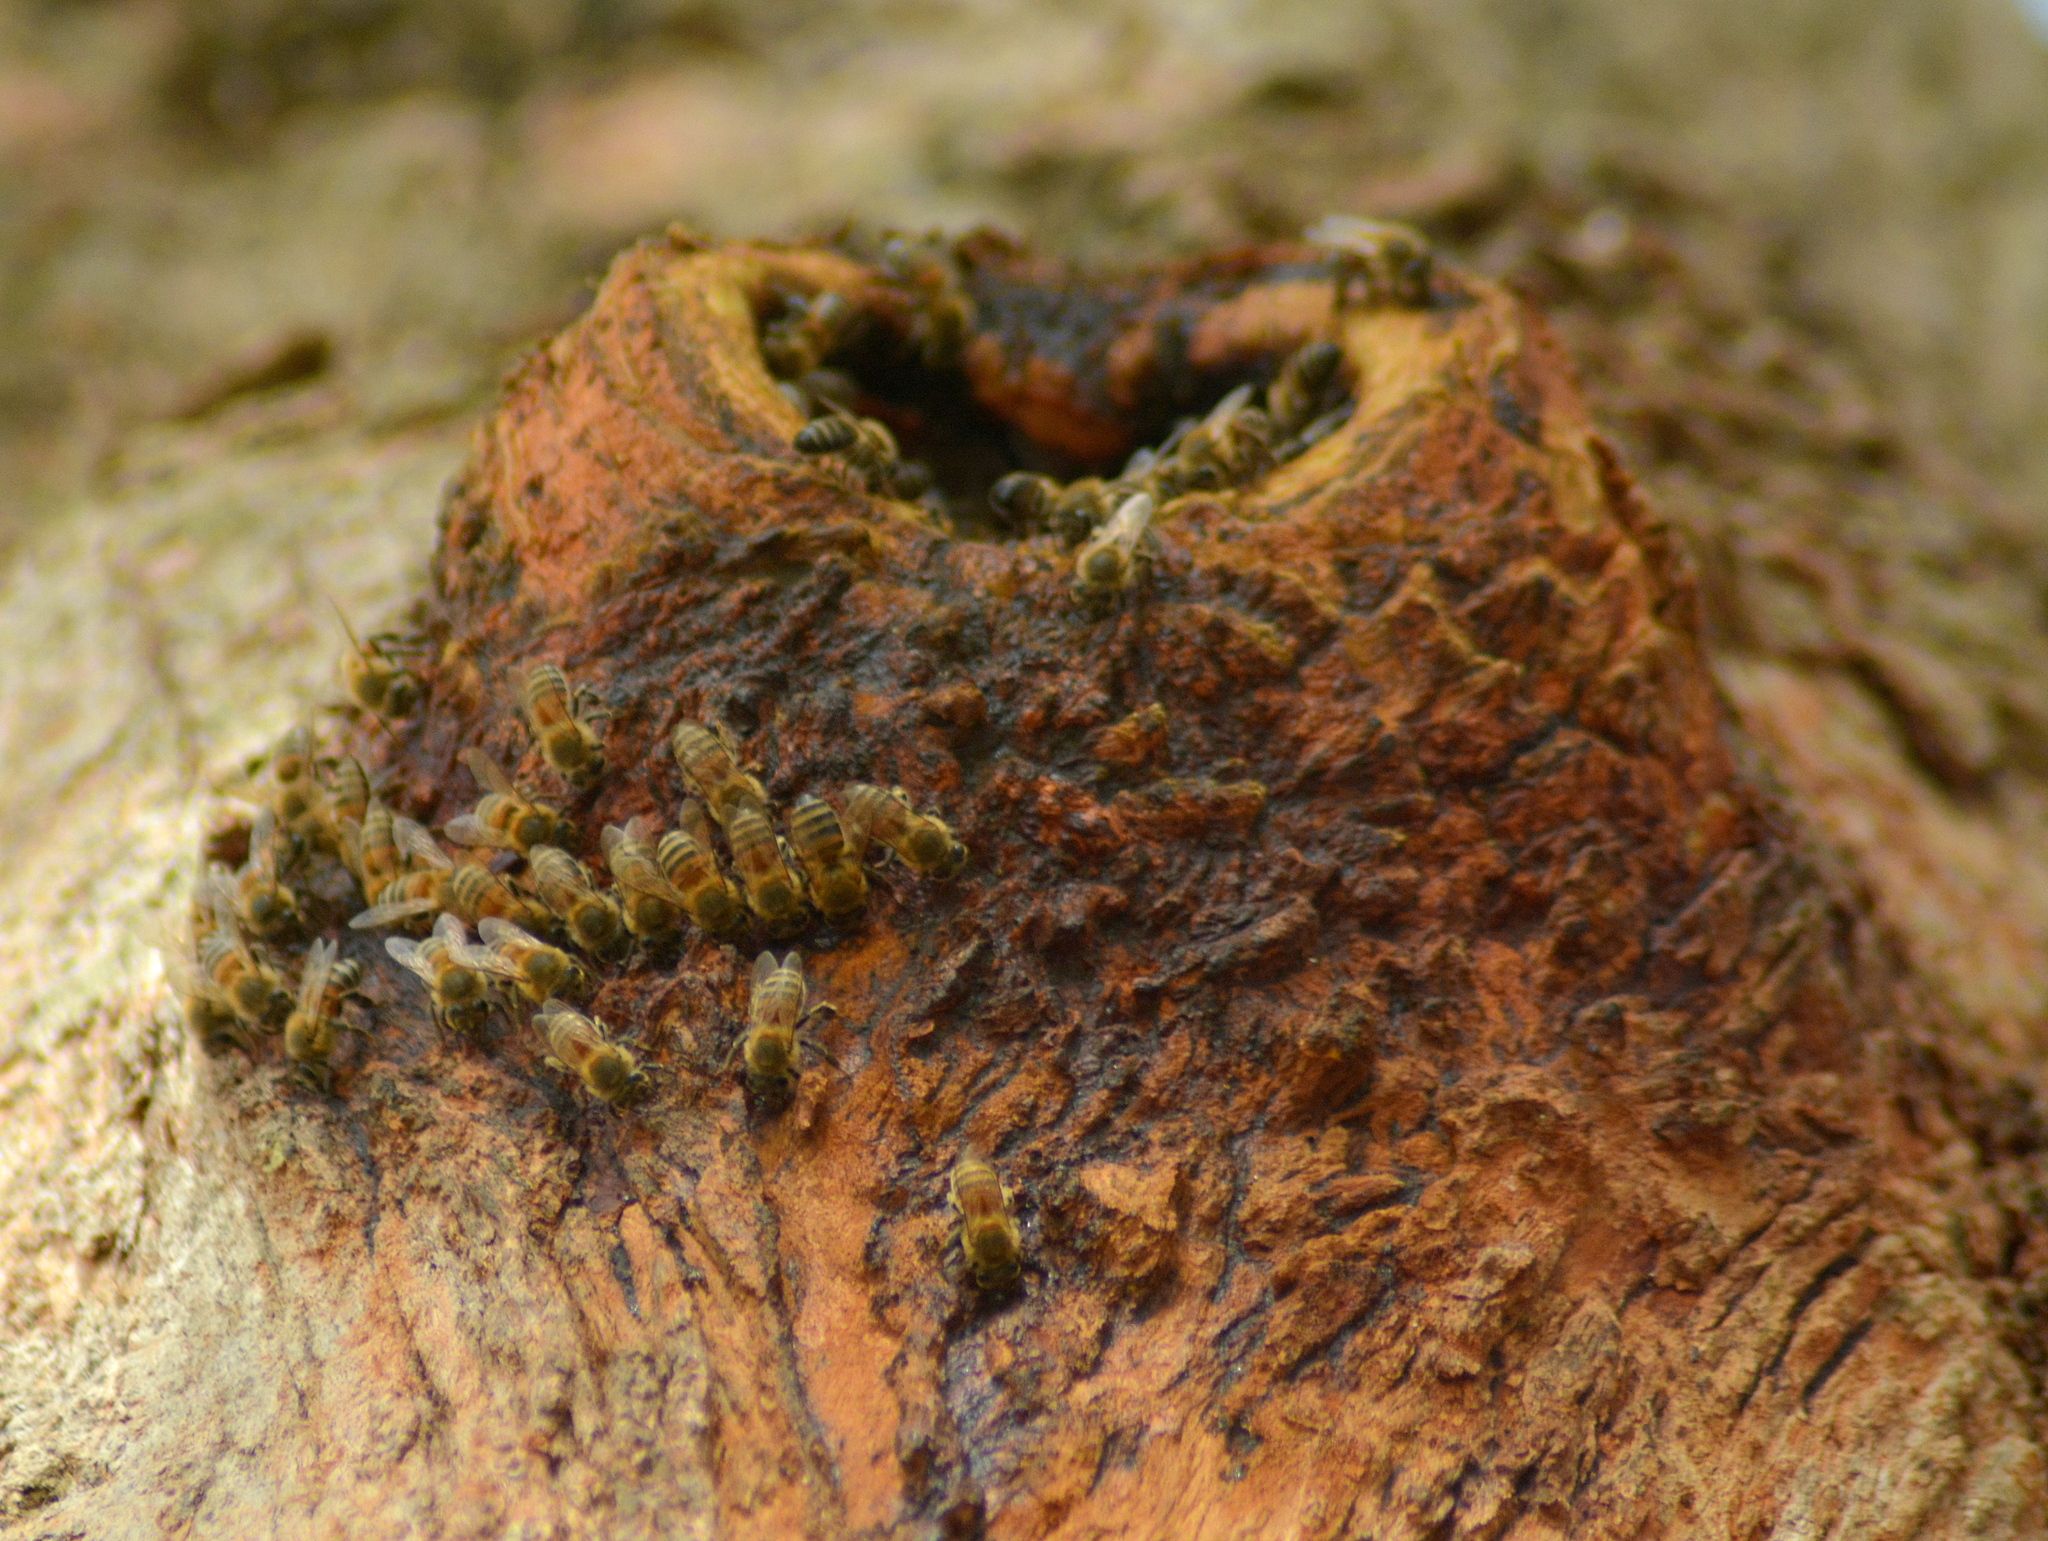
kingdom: Animalia
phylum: Arthropoda
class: Insecta
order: Hymenoptera
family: Apidae
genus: Apis
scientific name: Apis mellifera
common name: Honey bee
